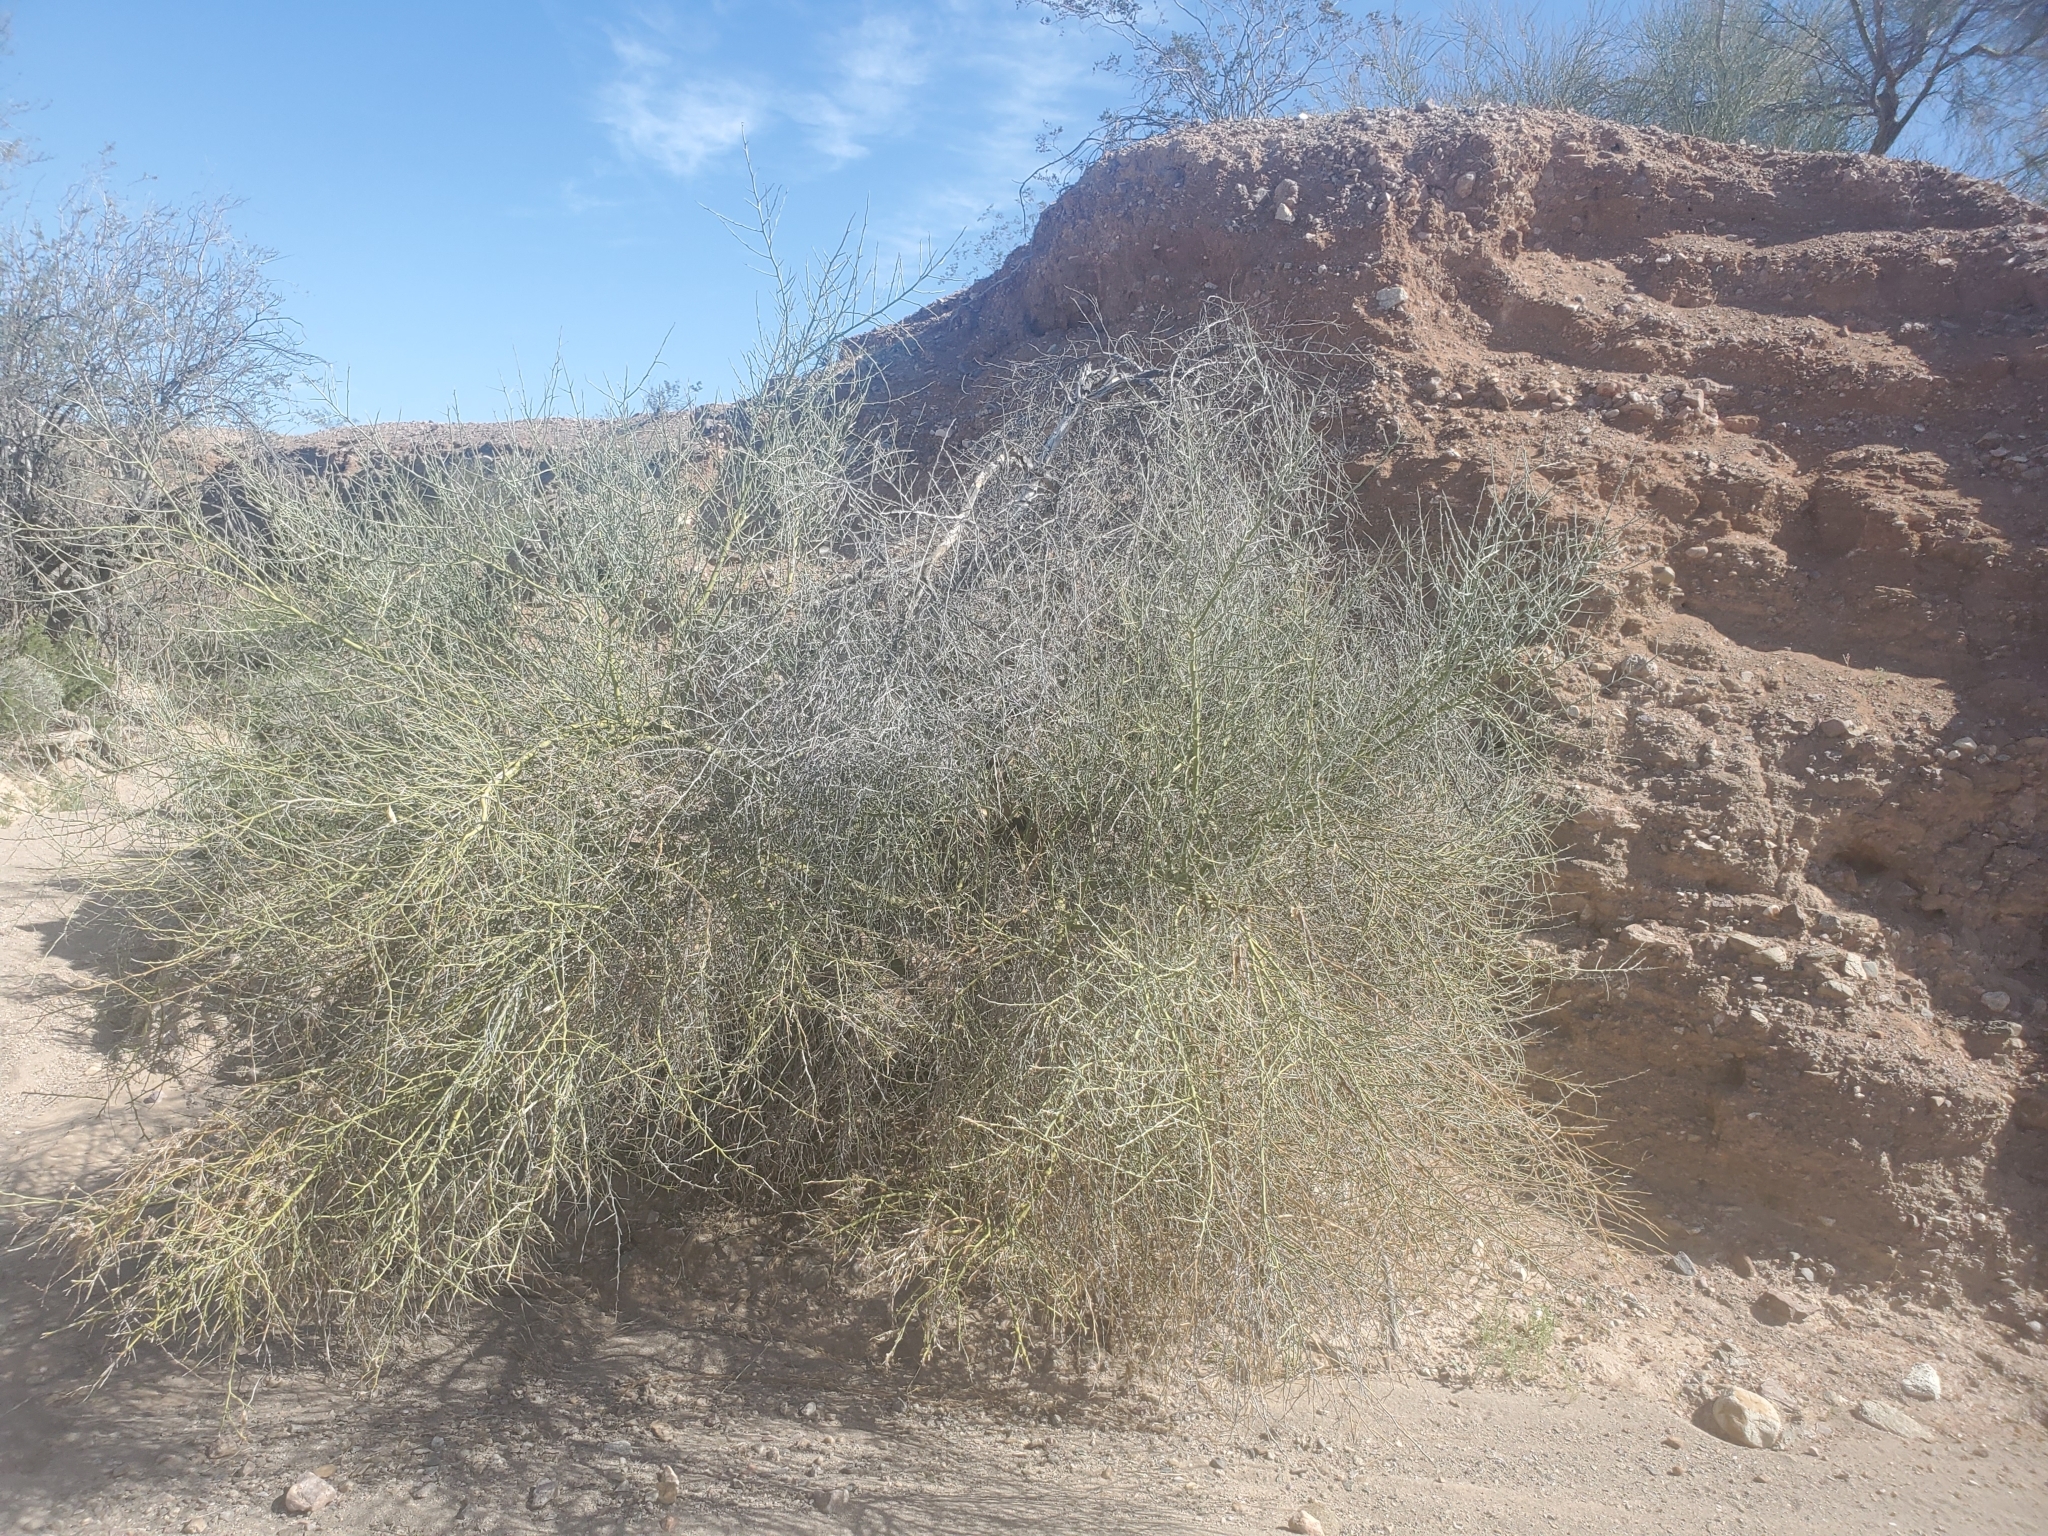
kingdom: Plantae
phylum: Tracheophyta
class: Magnoliopsida
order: Fabales
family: Fabaceae
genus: Parkinsonia
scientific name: Parkinsonia florida
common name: Blue paloverde
